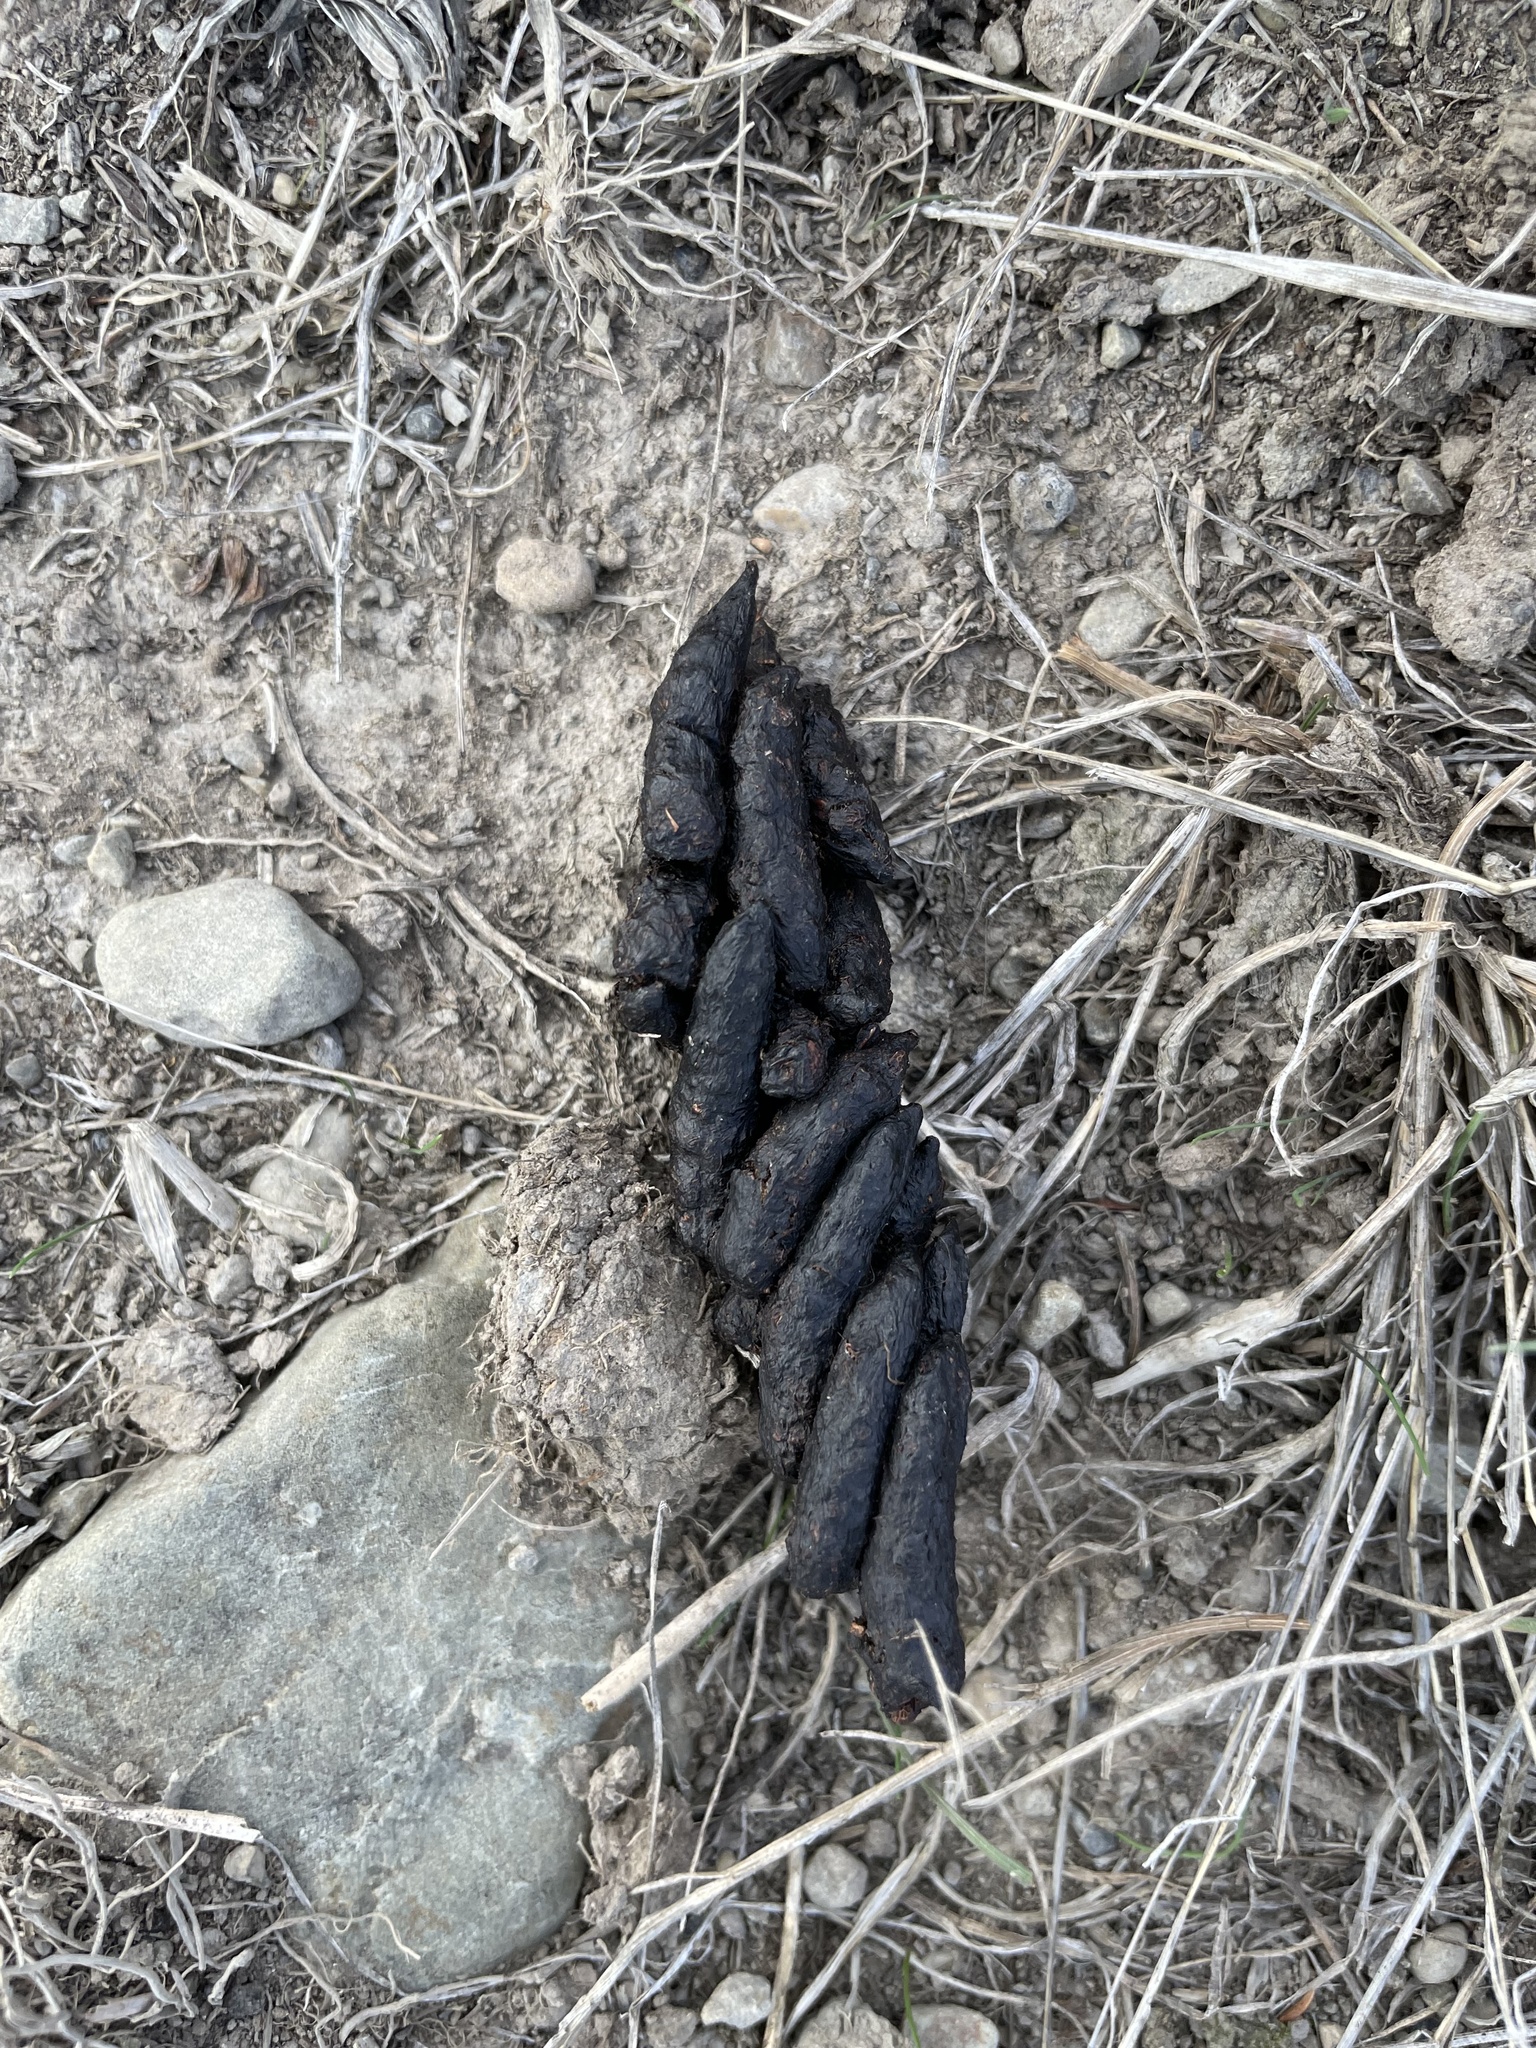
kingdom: Animalia
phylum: Chordata
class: Mammalia
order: Diprotodontia
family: Phalangeridae
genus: Trichosurus
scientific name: Trichosurus vulpecula
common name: Common brushtail
